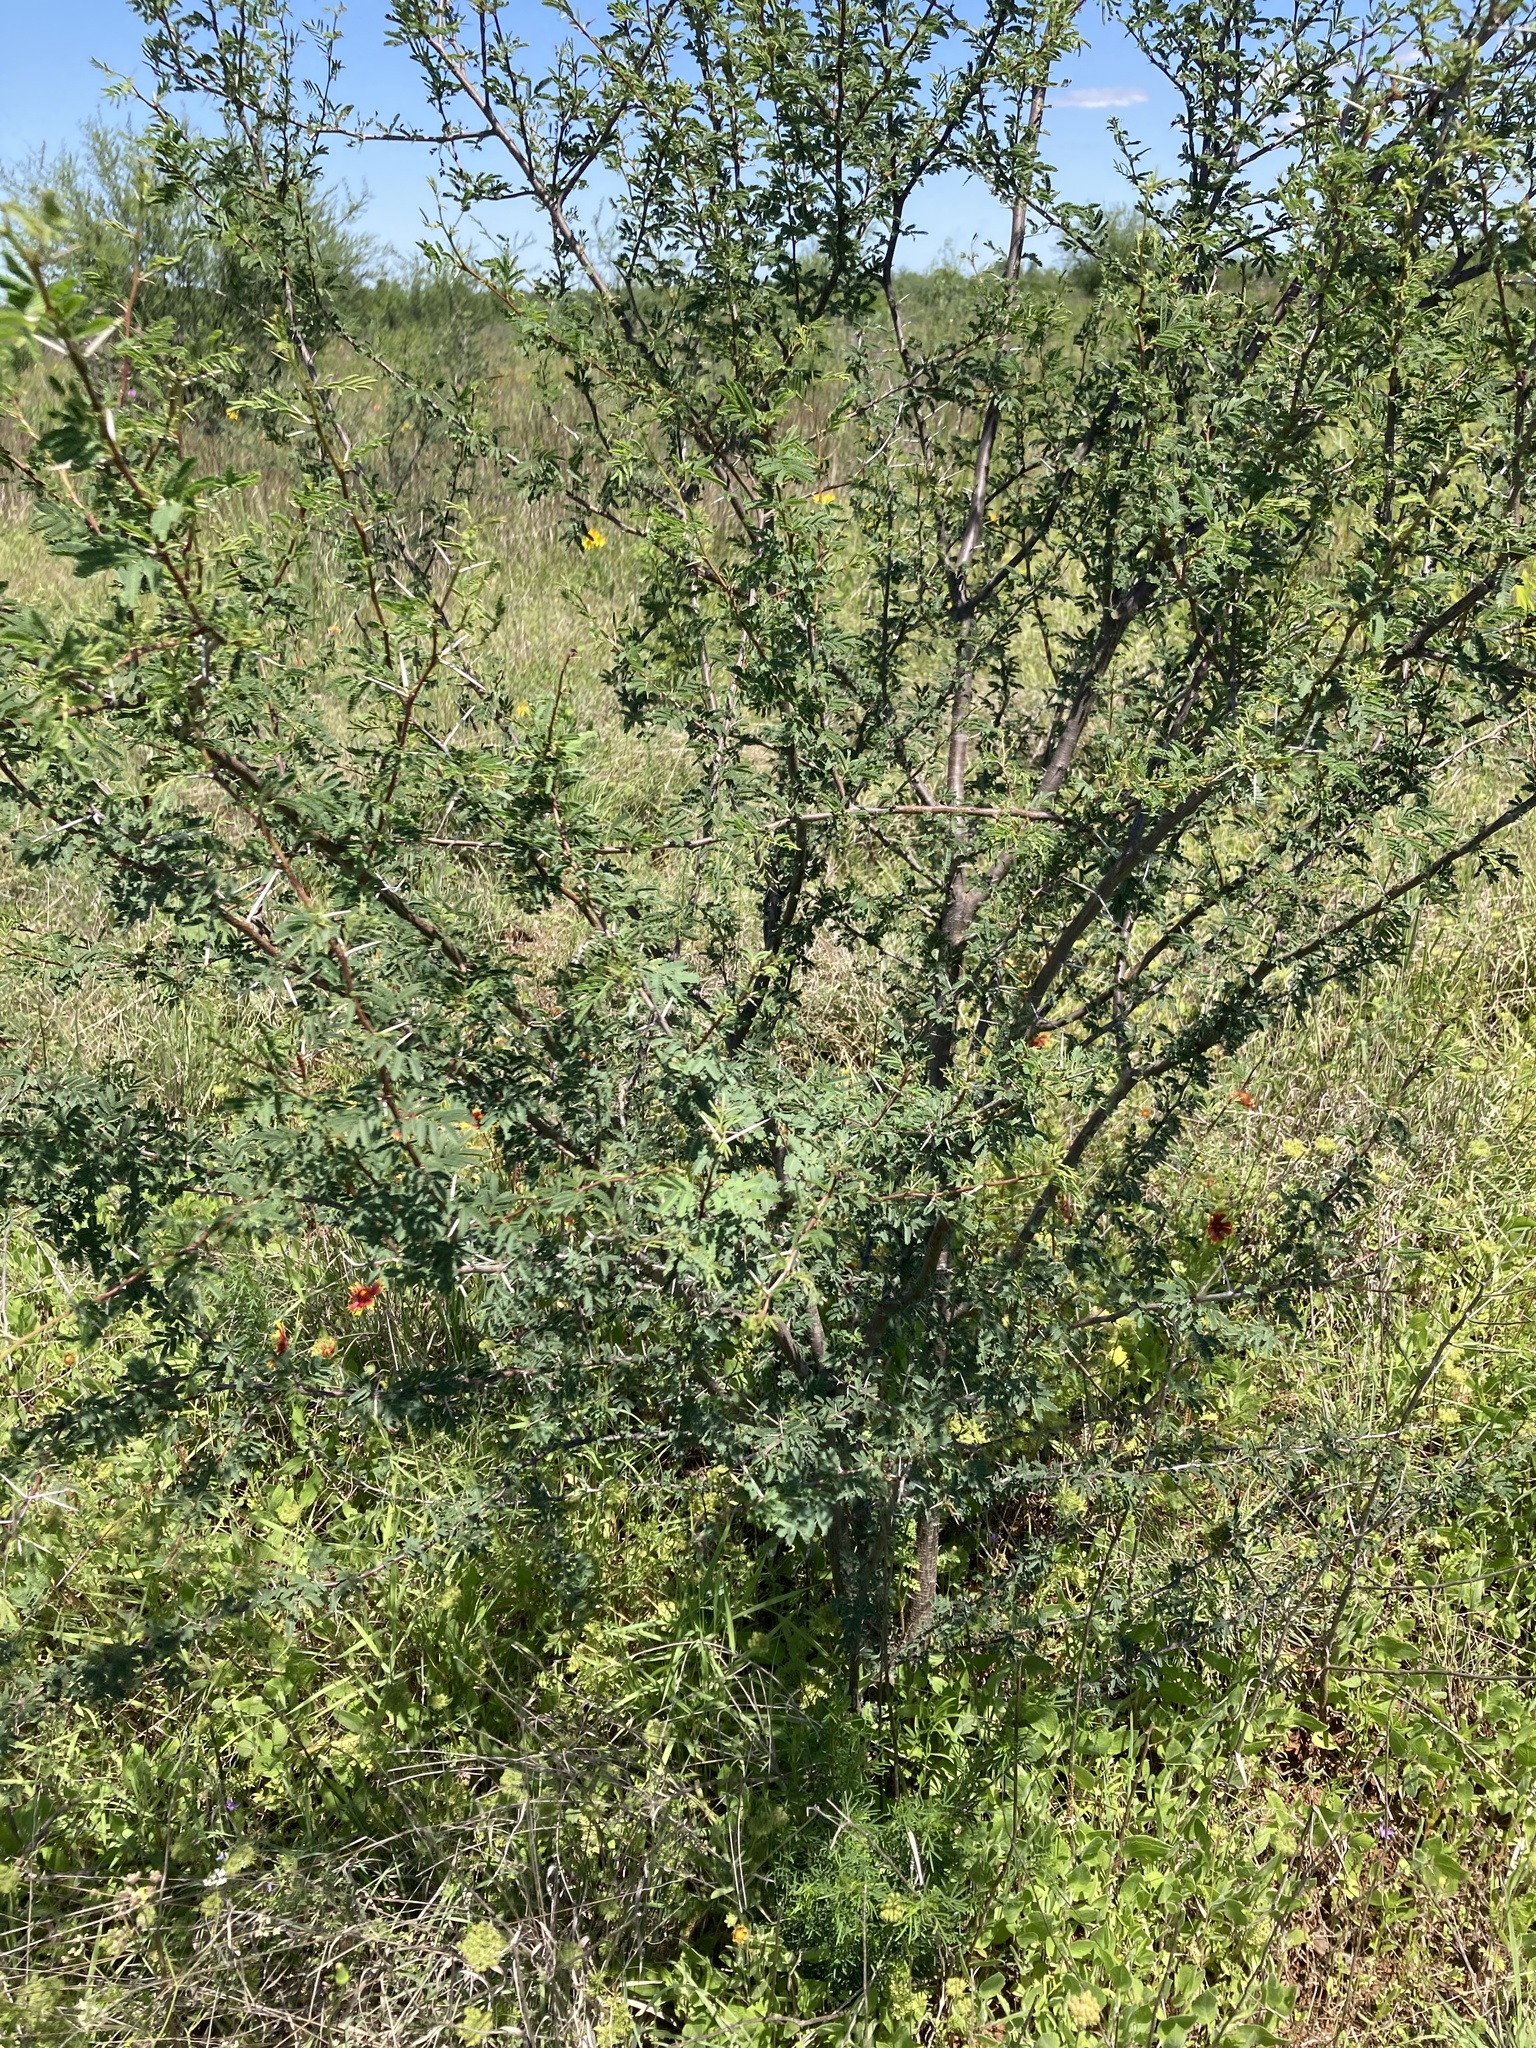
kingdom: Plantae
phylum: Tracheophyta
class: Magnoliopsida
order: Fabales
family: Fabaceae
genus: Vachellia
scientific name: Vachellia farnesiana
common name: Sweet acacia
